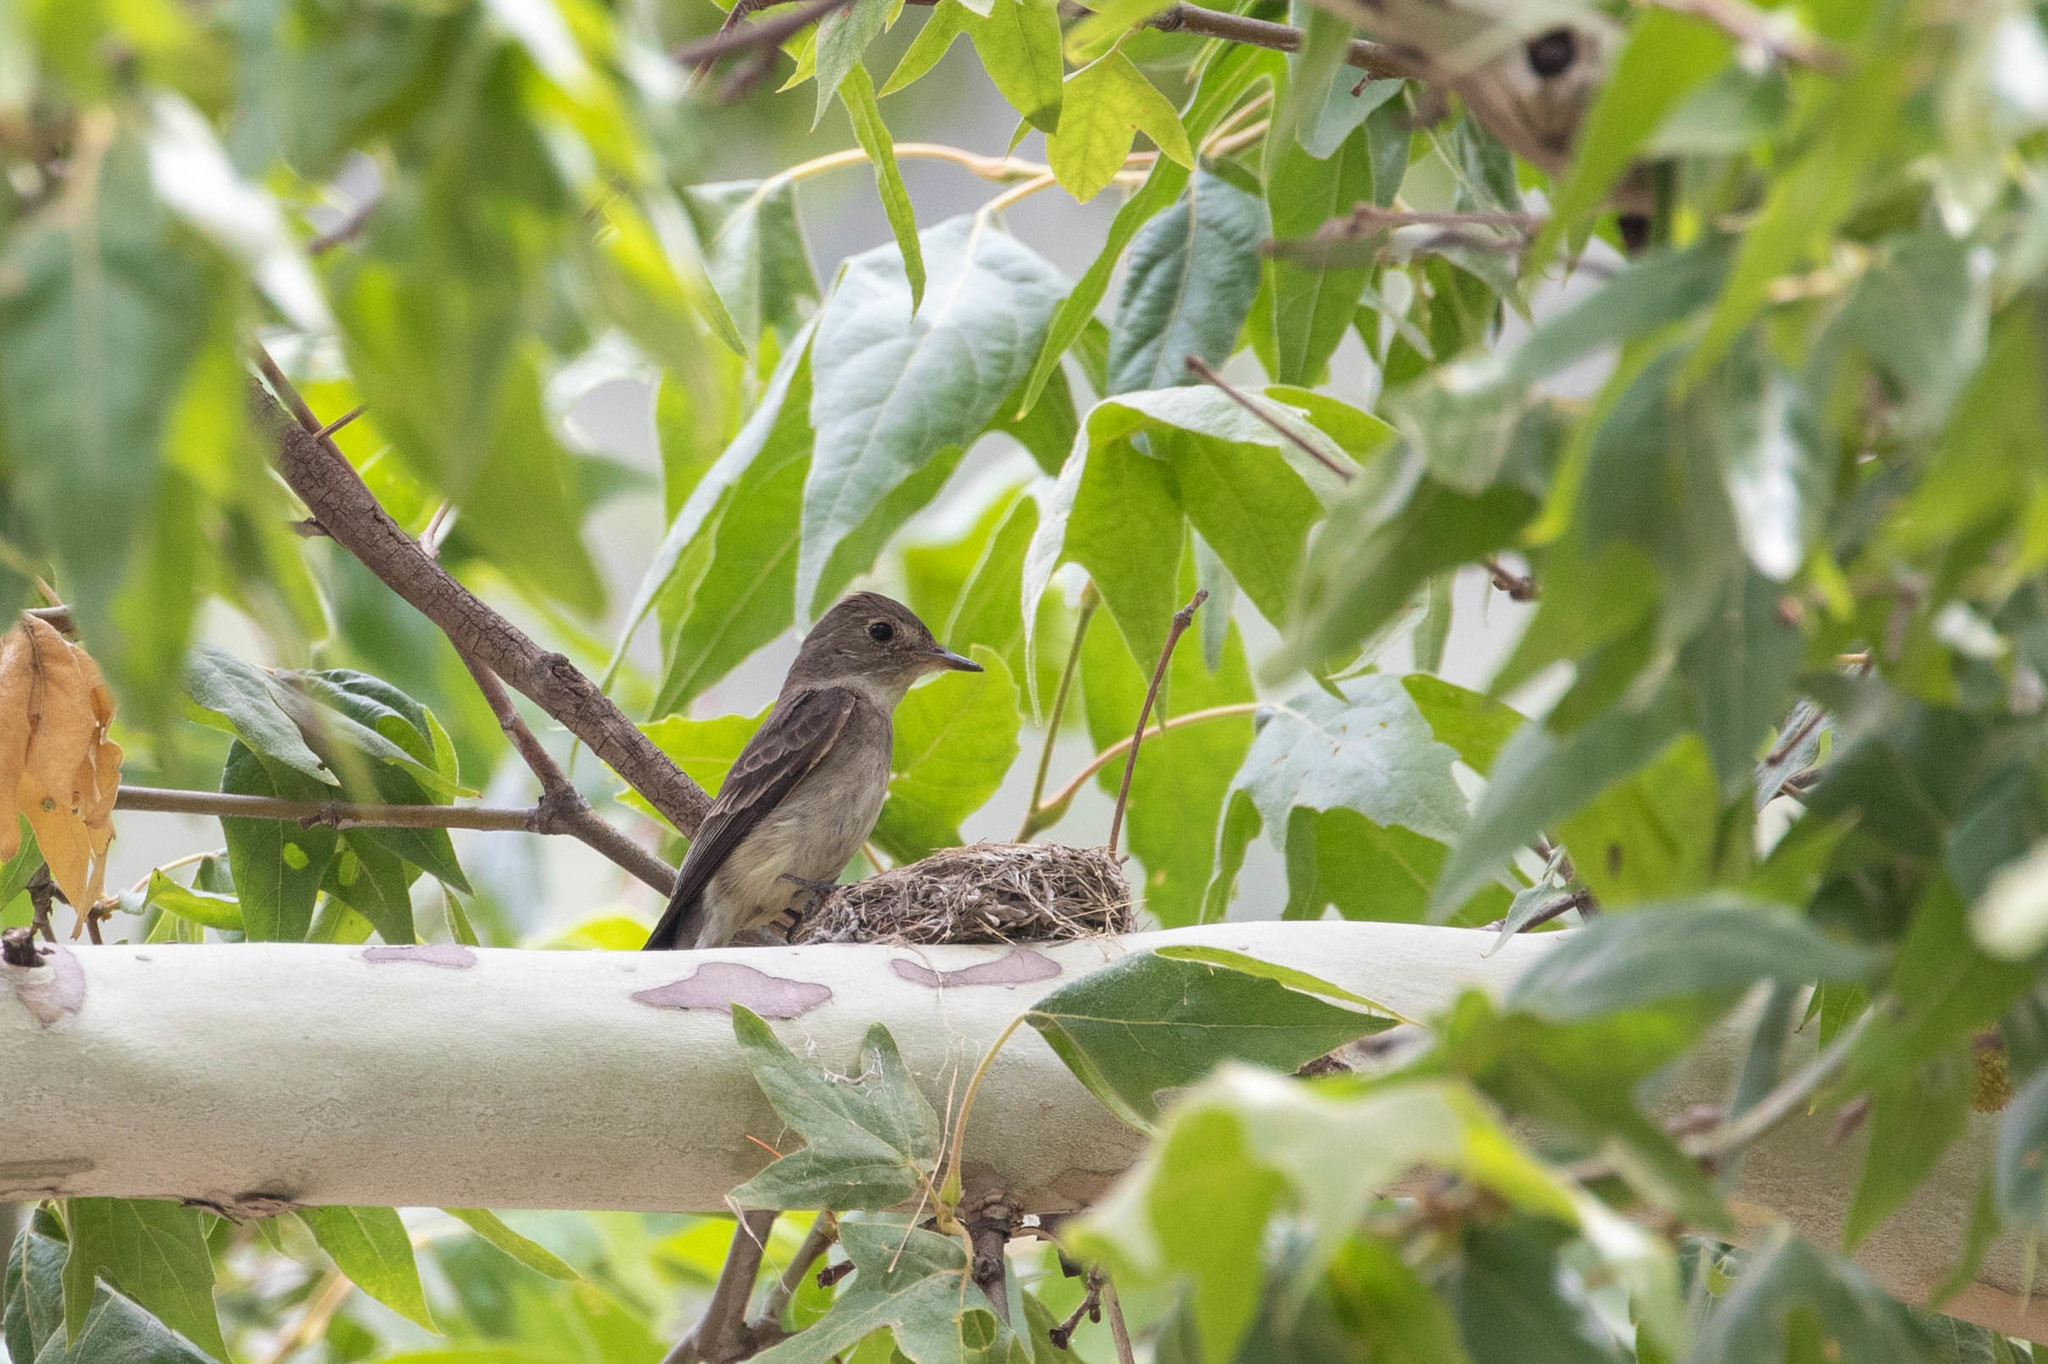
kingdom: Animalia
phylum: Chordata
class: Aves
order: Passeriformes
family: Tyrannidae
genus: Contopus
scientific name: Contopus sordidulus
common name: Western wood-pewee
